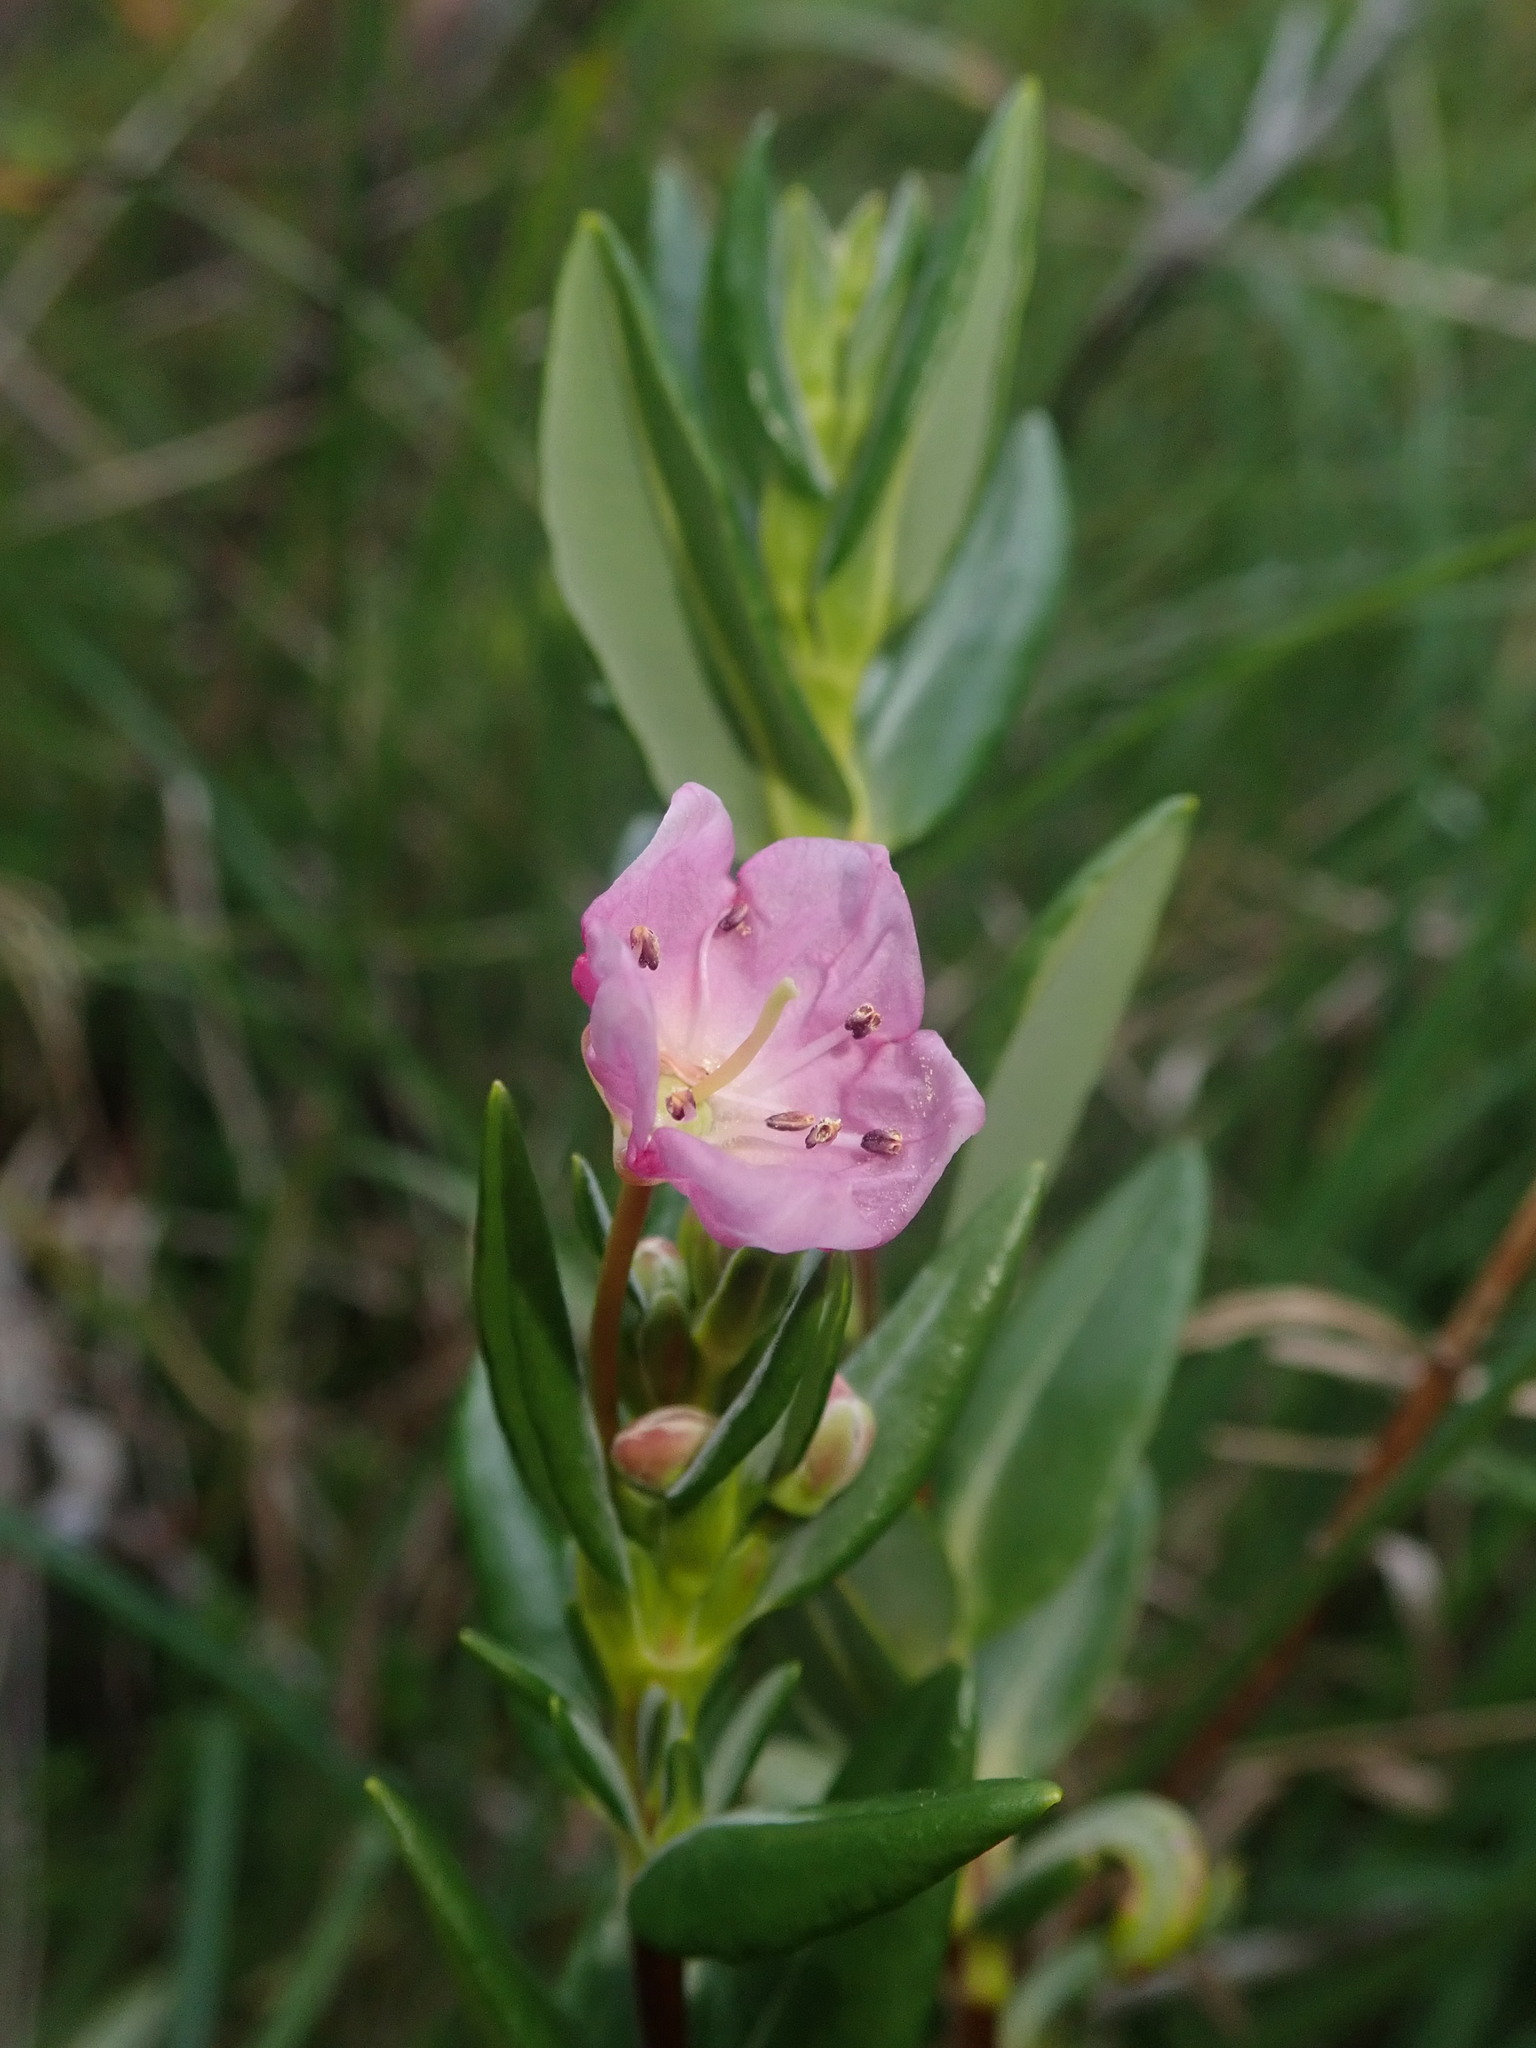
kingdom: Plantae
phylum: Tracheophyta
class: Magnoliopsida
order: Ericales
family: Ericaceae
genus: Kalmia
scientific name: Kalmia microphylla
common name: Alpine bog laurel
